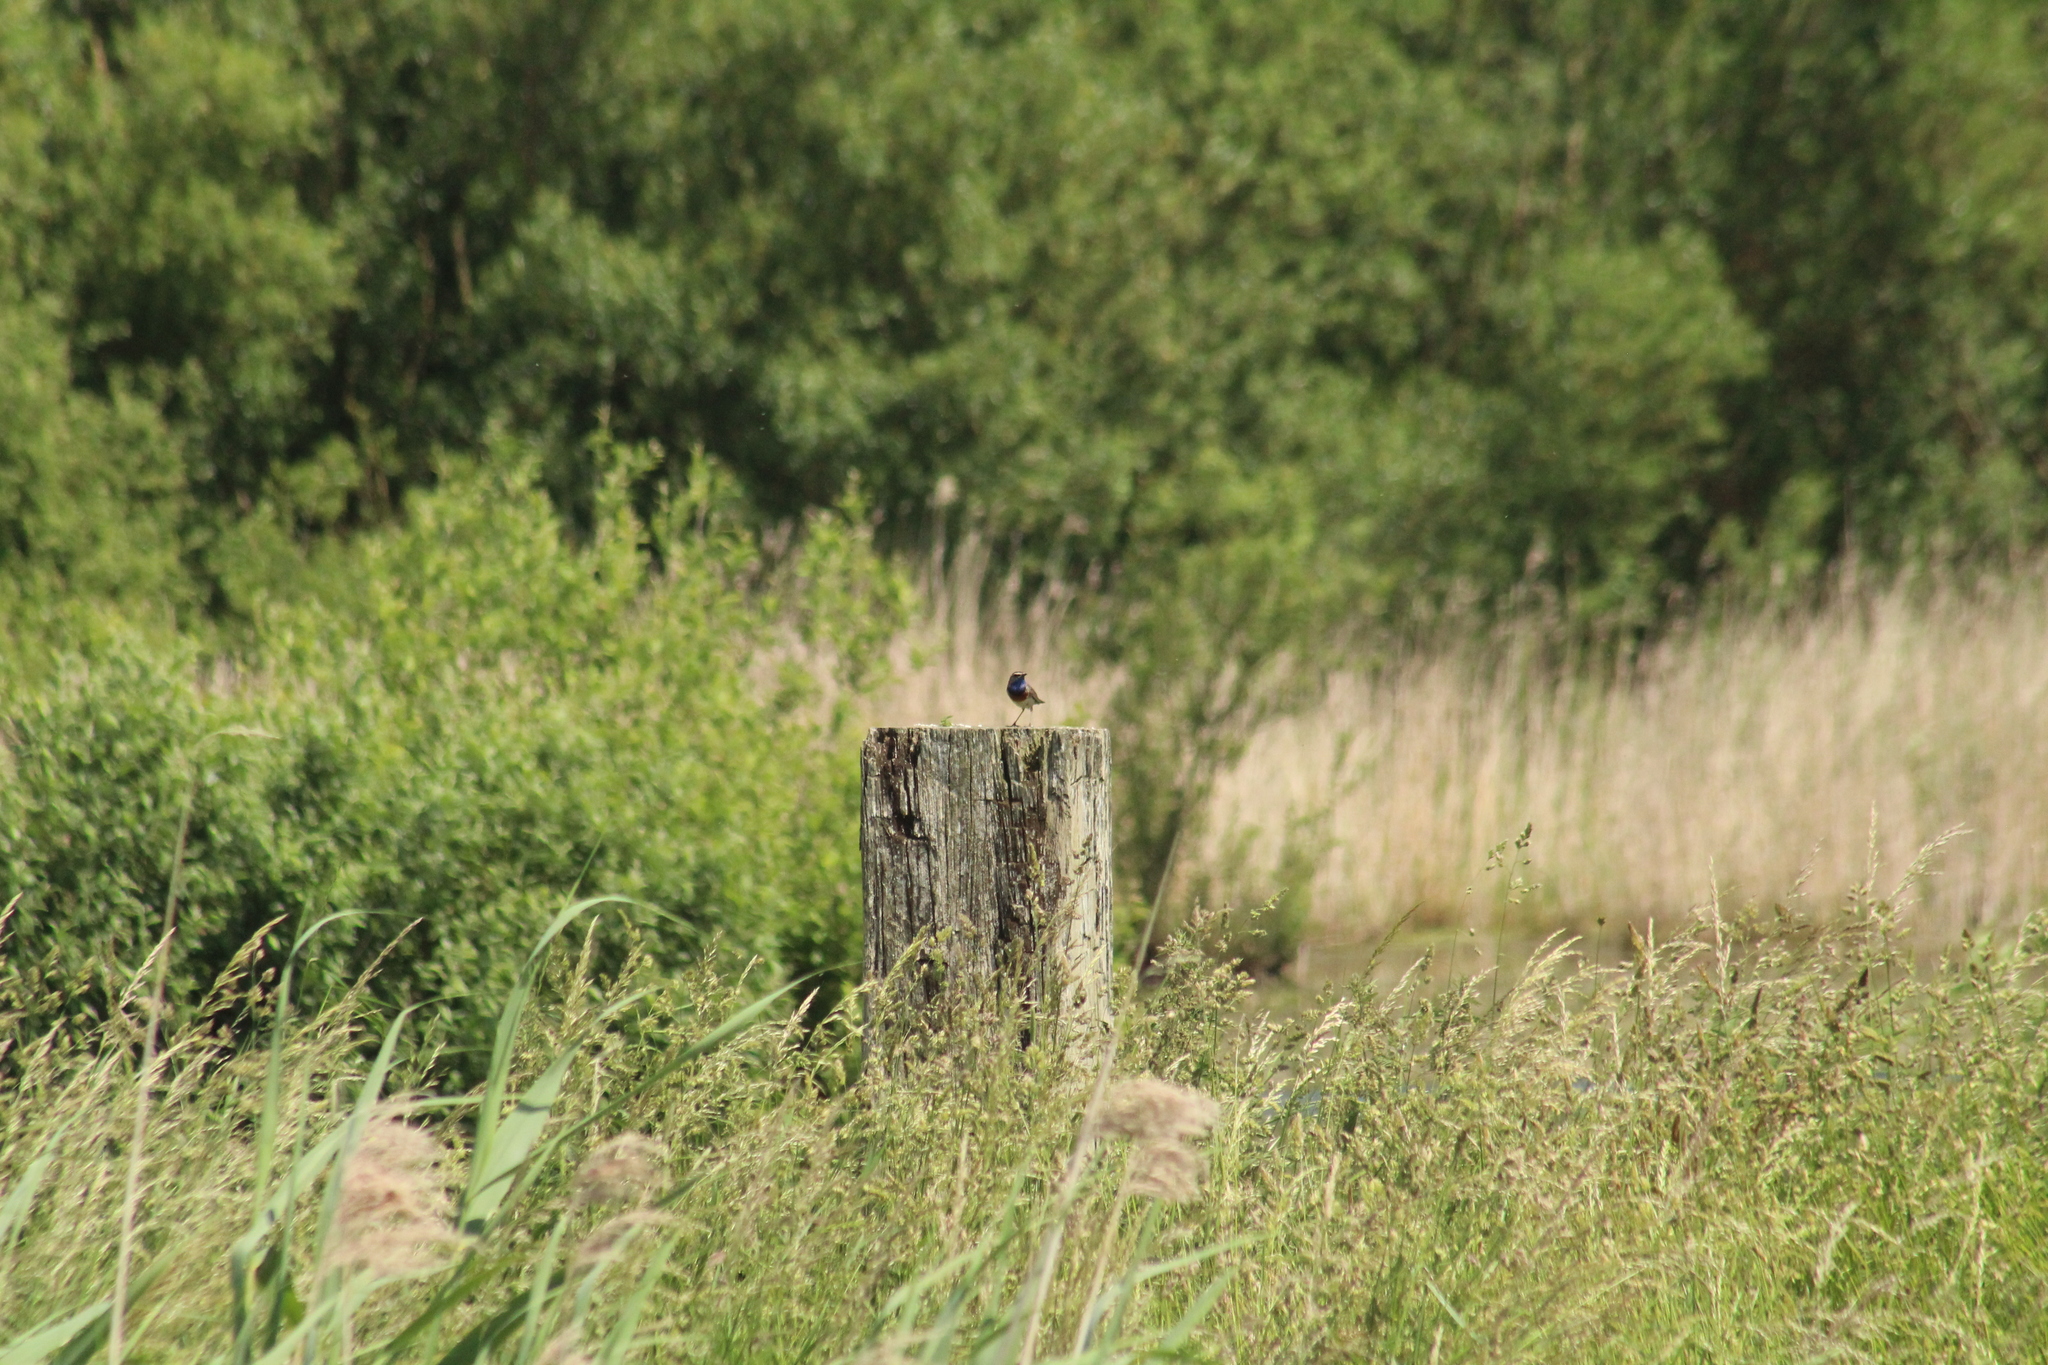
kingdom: Animalia
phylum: Chordata
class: Aves
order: Passeriformes
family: Muscicapidae
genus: Luscinia
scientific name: Luscinia svecica
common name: Bluethroat
